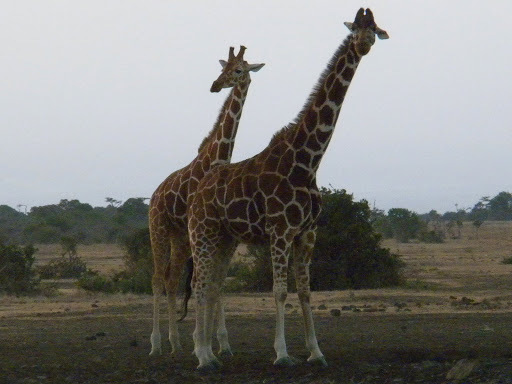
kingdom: Animalia
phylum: Chordata
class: Mammalia
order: Artiodactyla
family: Giraffidae
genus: Giraffa
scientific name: Giraffa reticulata
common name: Reticulated giraffe
